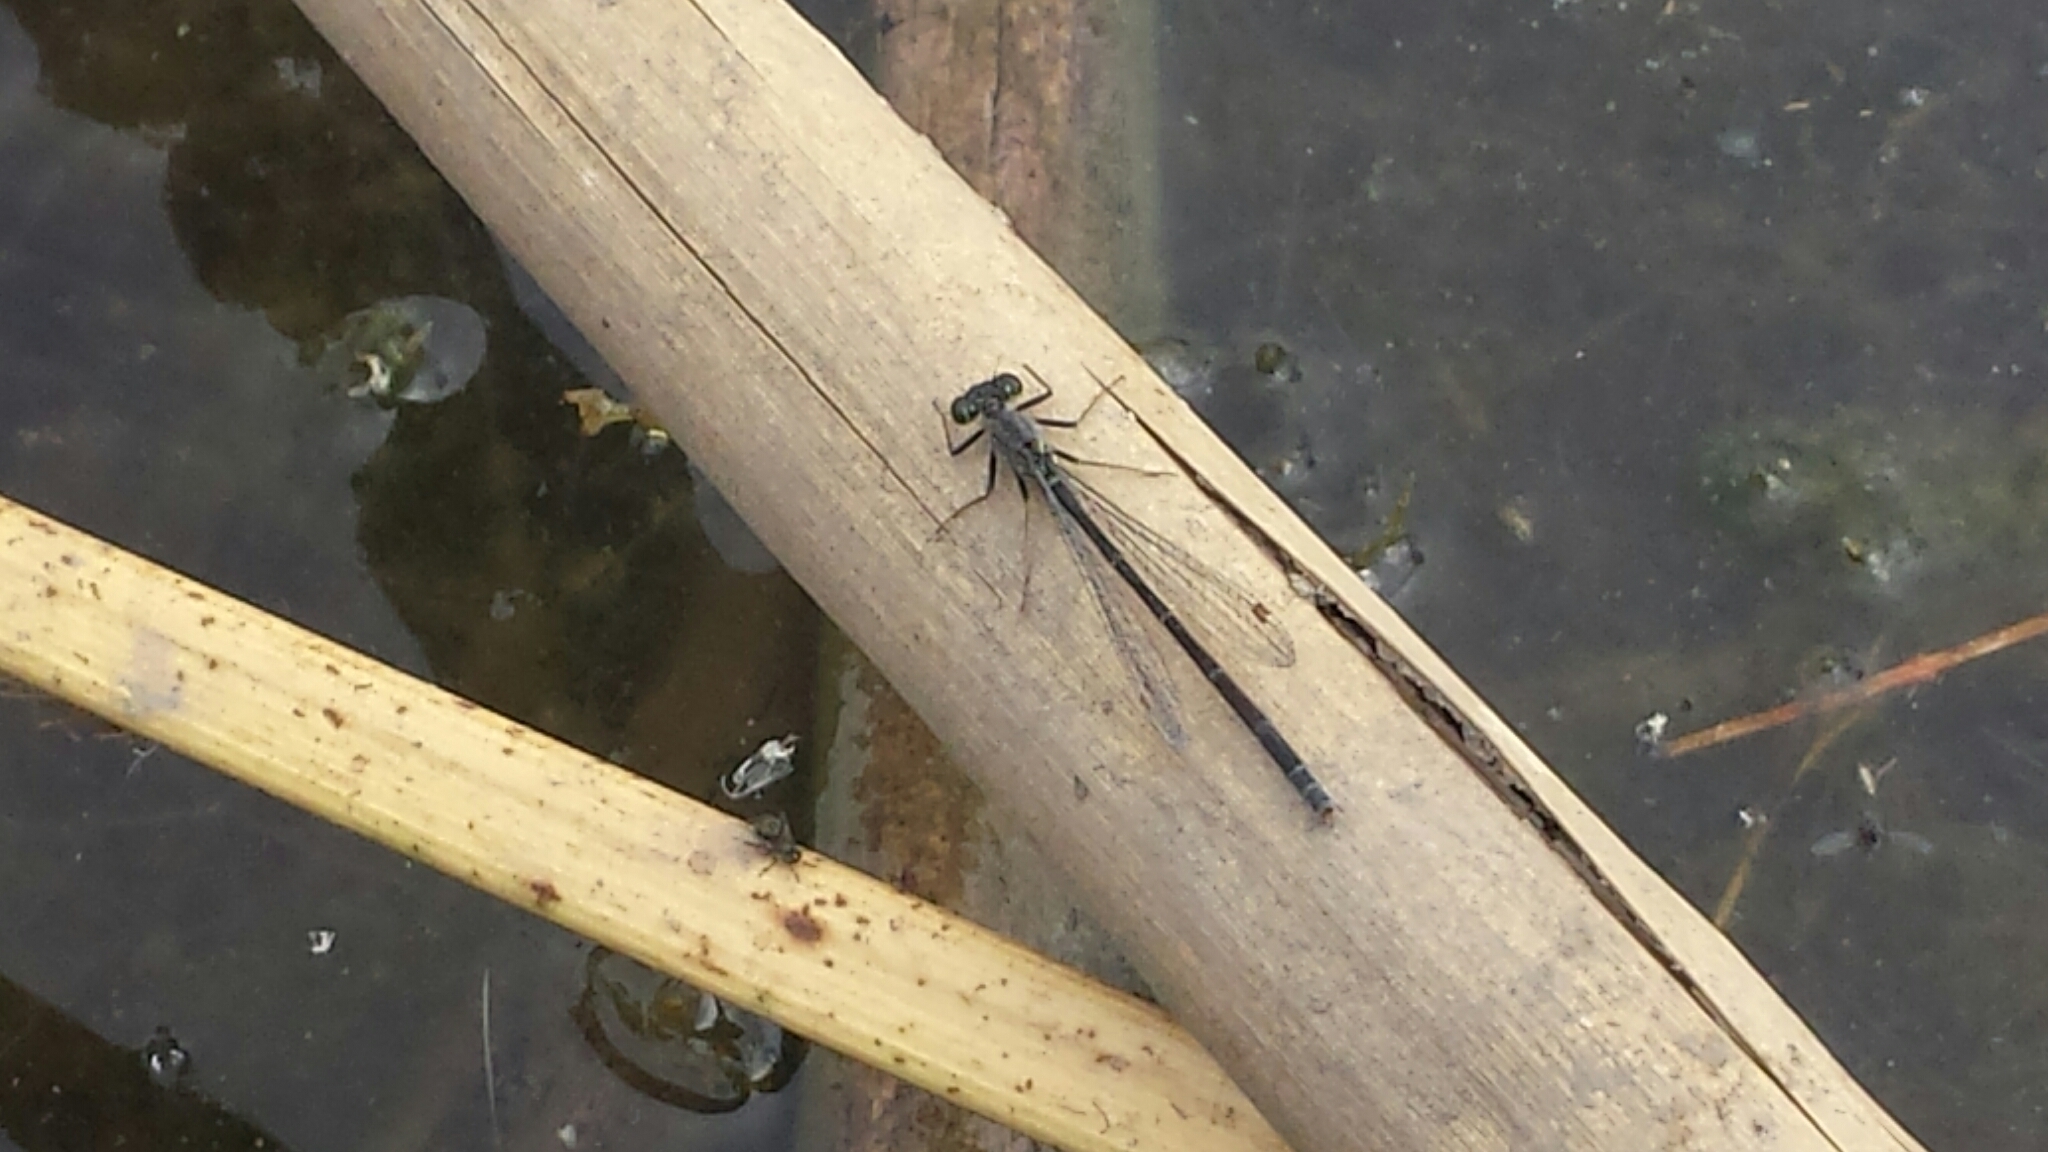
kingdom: Animalia
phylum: Arthropoda
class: Insecta
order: Odonata
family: Coenagrionidae
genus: Ischnura
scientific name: Ischnura cervula
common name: Pacific forktail
